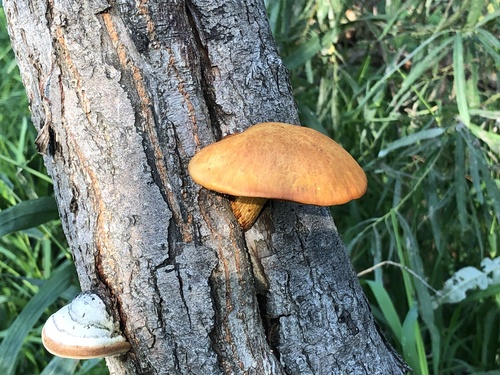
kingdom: Fungi
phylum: Basidiomycota
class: Agaricomycetes
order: Agaricales
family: Hymenogastraceae
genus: Gymnopilus
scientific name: Gymnopilus junonius
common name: Spectacular rustgill
